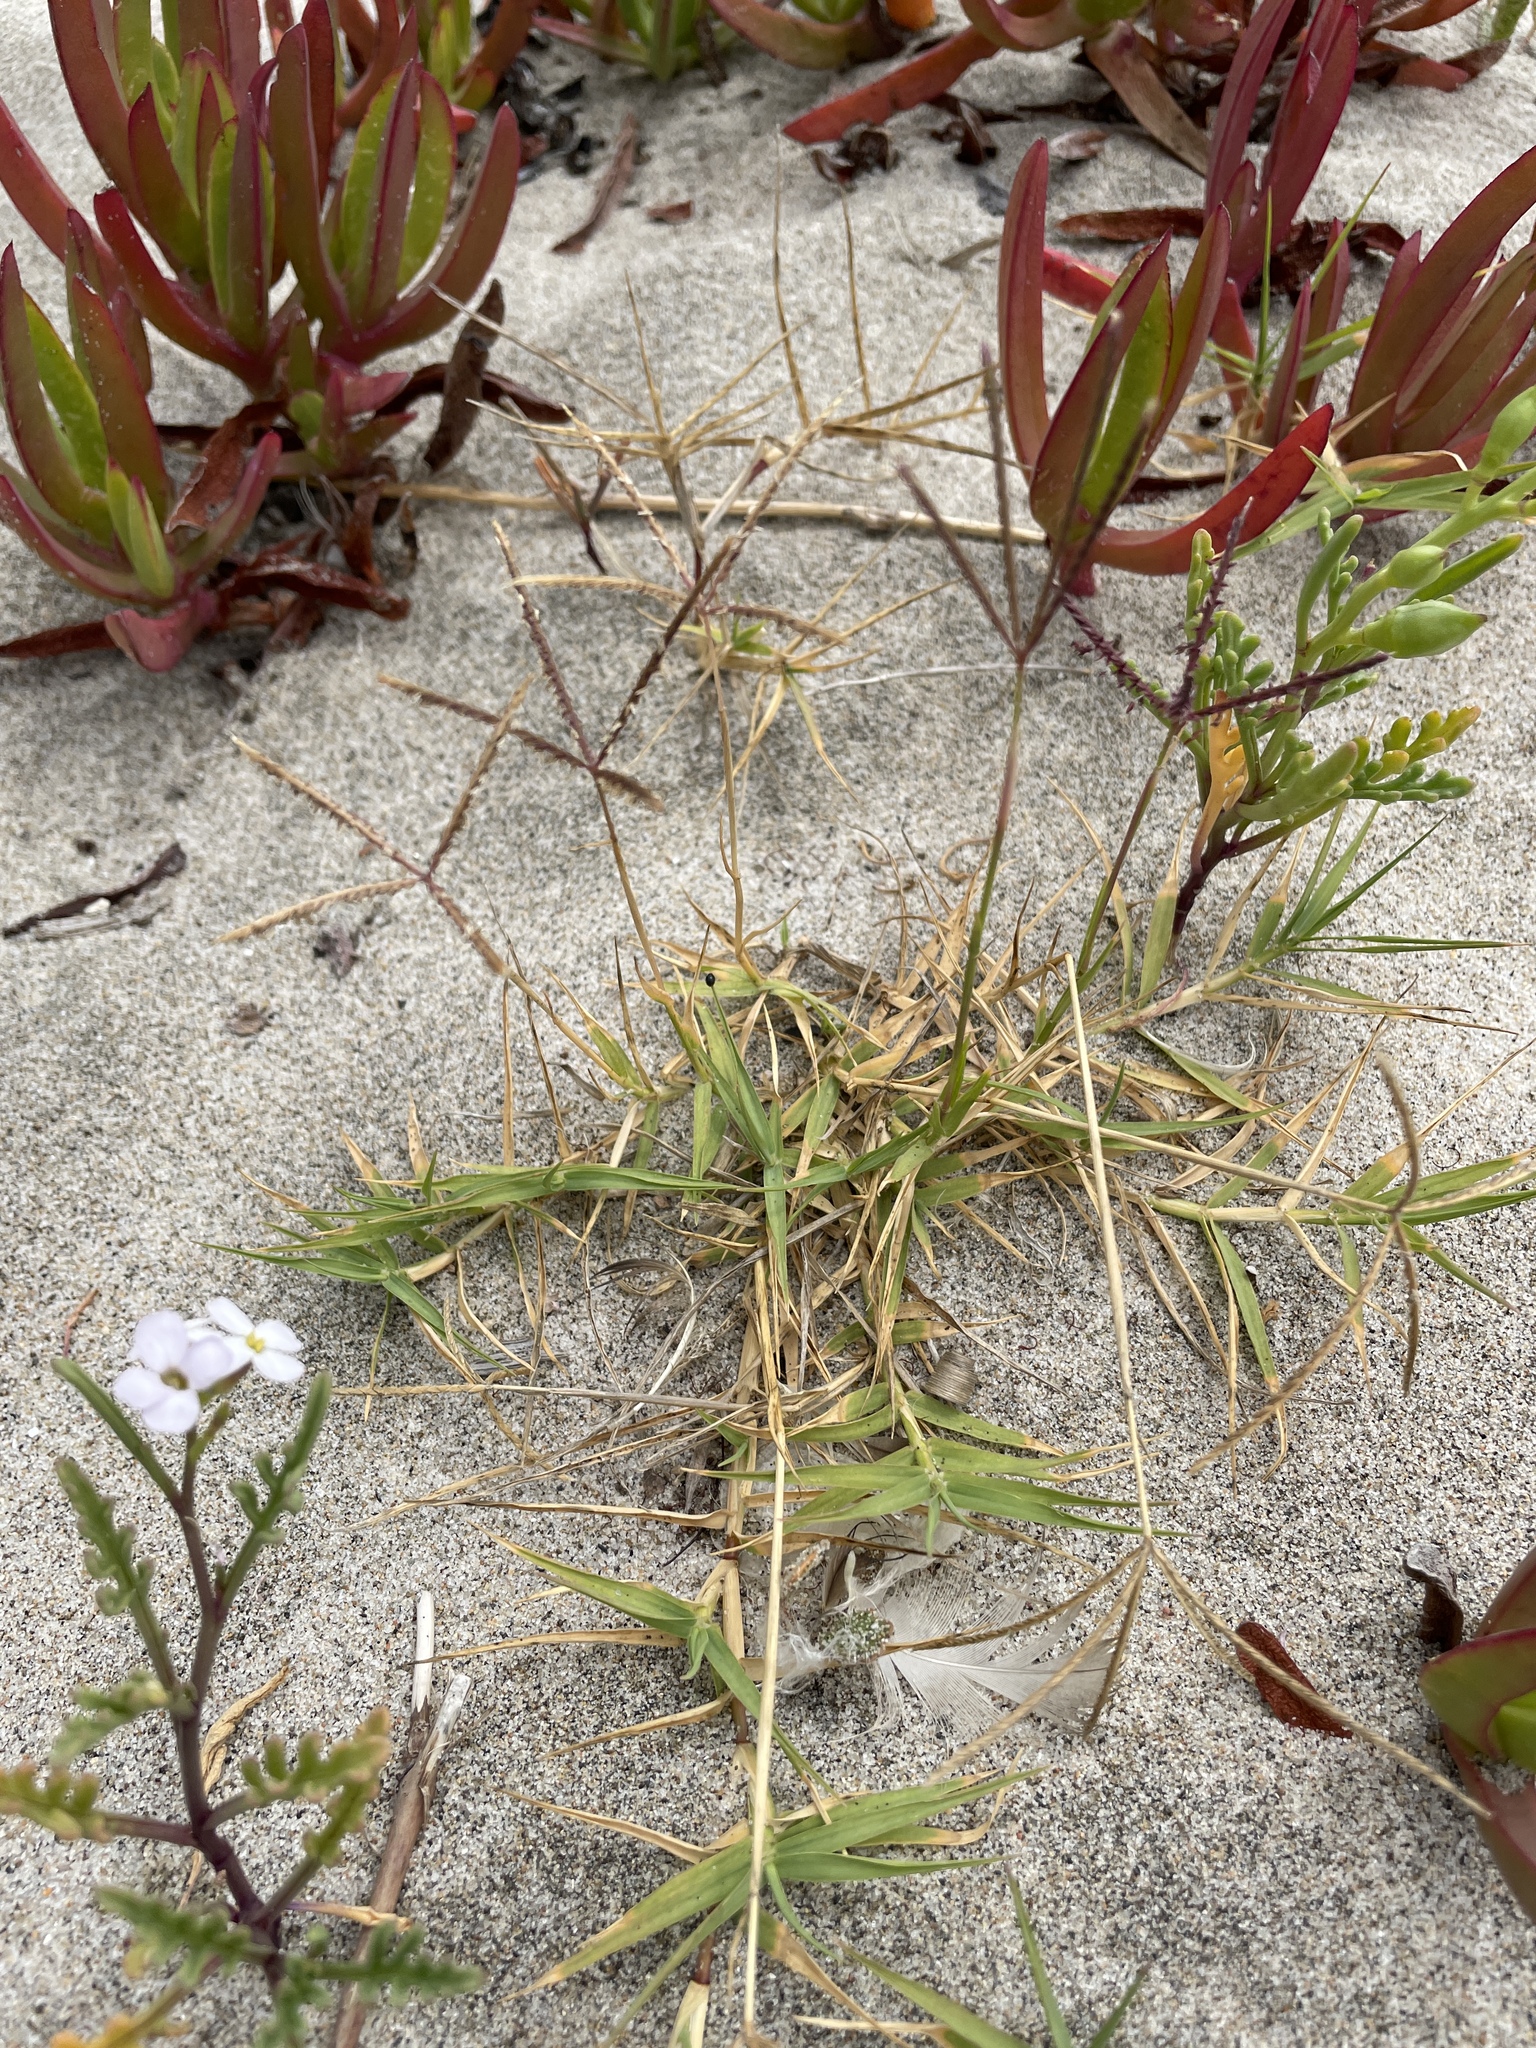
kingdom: Plantae
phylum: Tracheophyta
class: Liliopsida
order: Poales
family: Poaceae
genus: Cynodon
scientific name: Cynodon dactylon
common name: Bermuda grass
